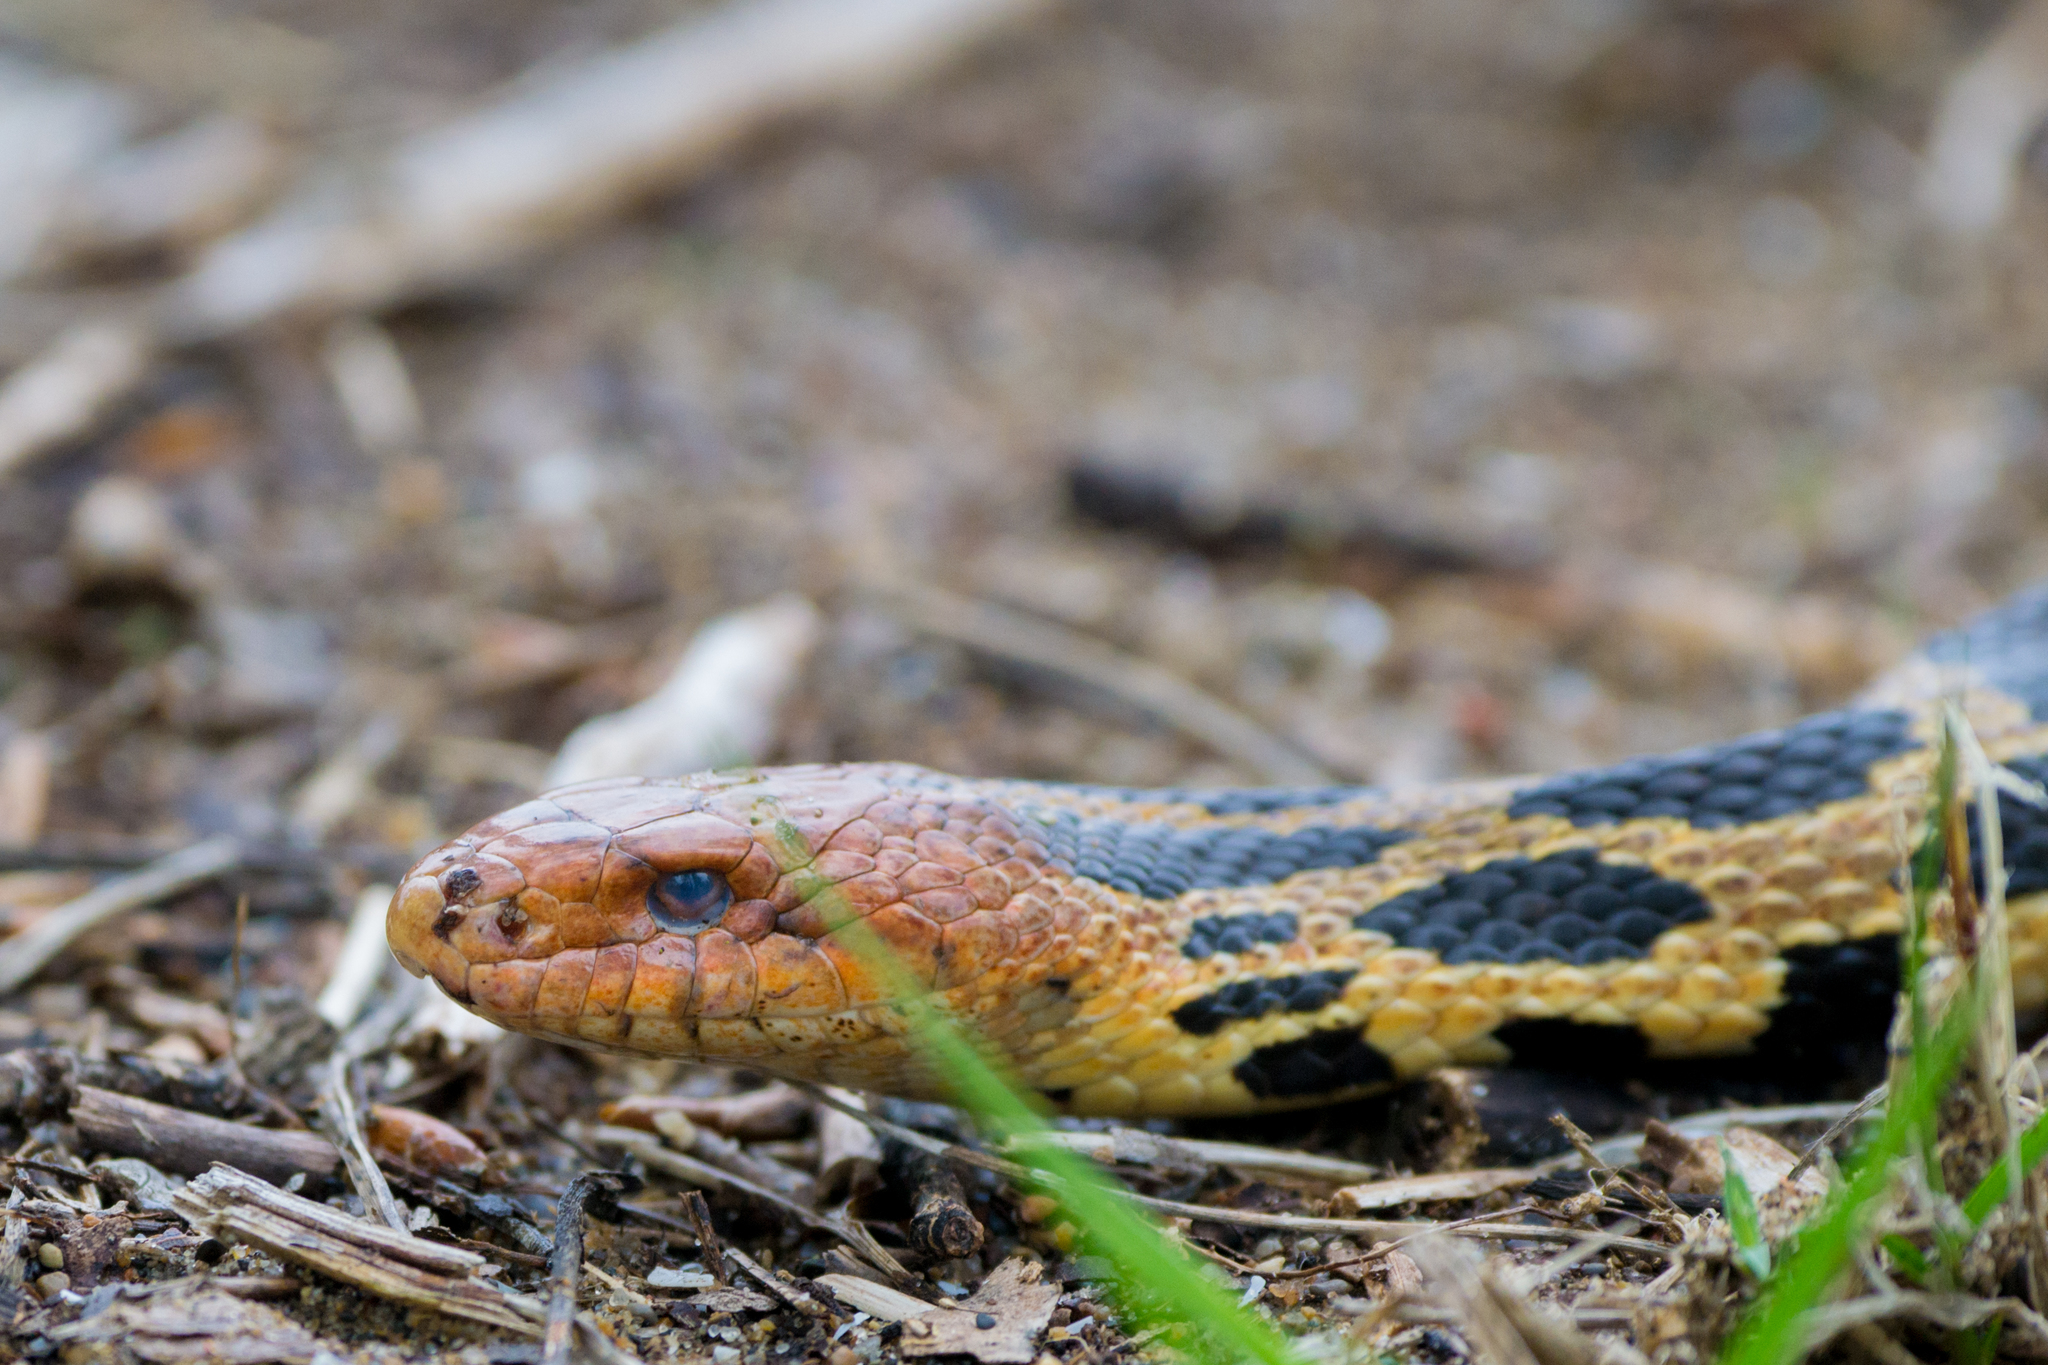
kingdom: Animalia
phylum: Chordata
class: Squamata
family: Colubridae
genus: Pantherophis
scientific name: Pantherophis vulpinus
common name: Eastern fox snake
